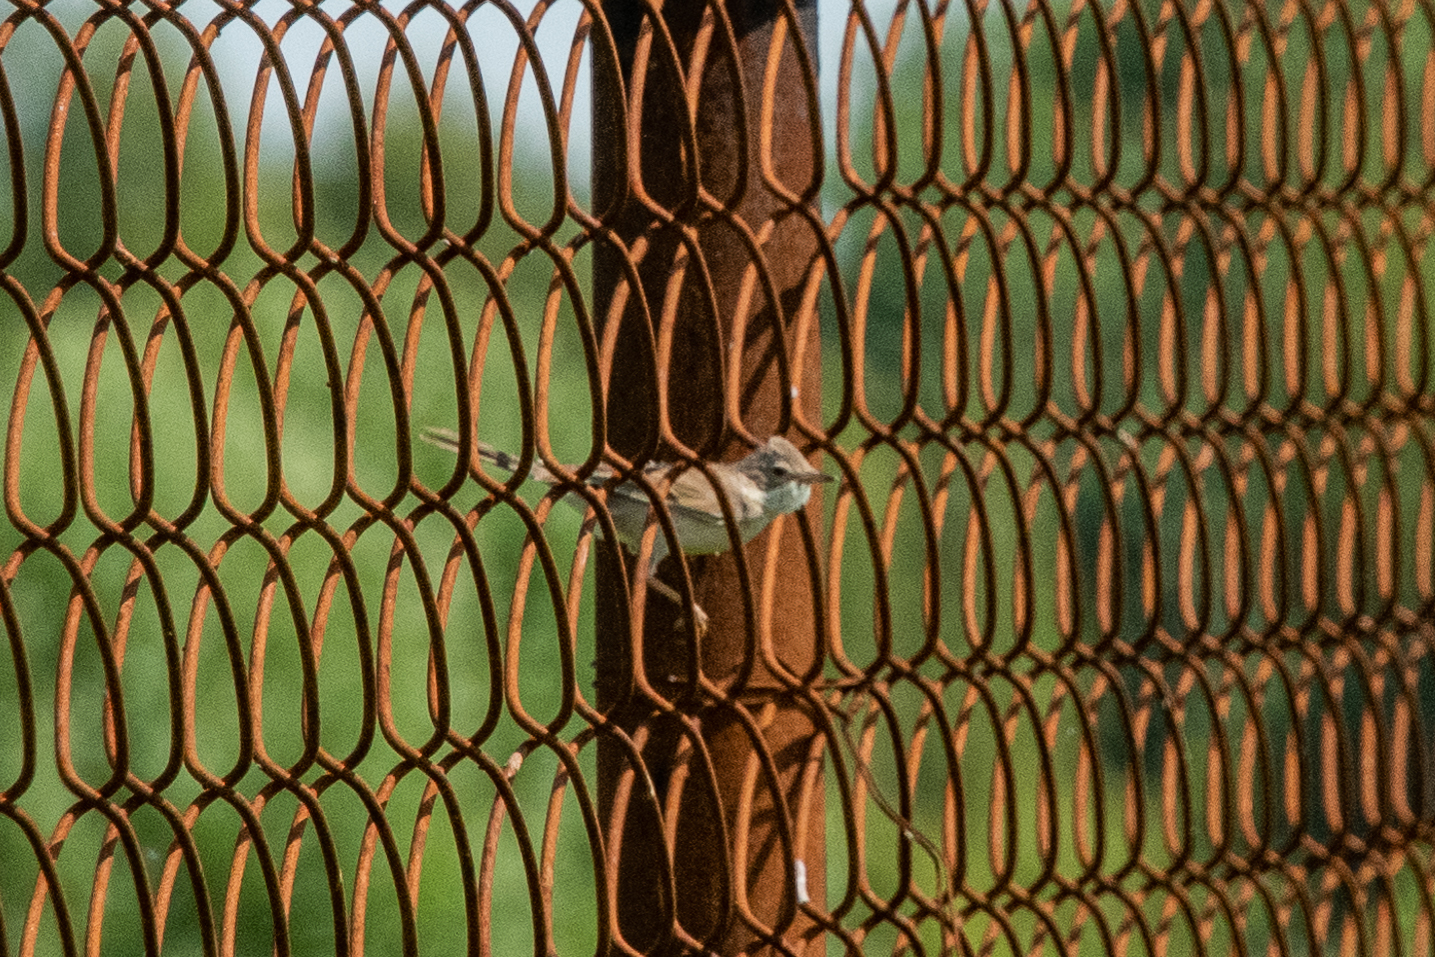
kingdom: Animalia
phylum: Chordata
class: Aves
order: Passeriformes
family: Sylviidae
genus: Sylvia
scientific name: Sylvia communis
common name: Common whitethroat
